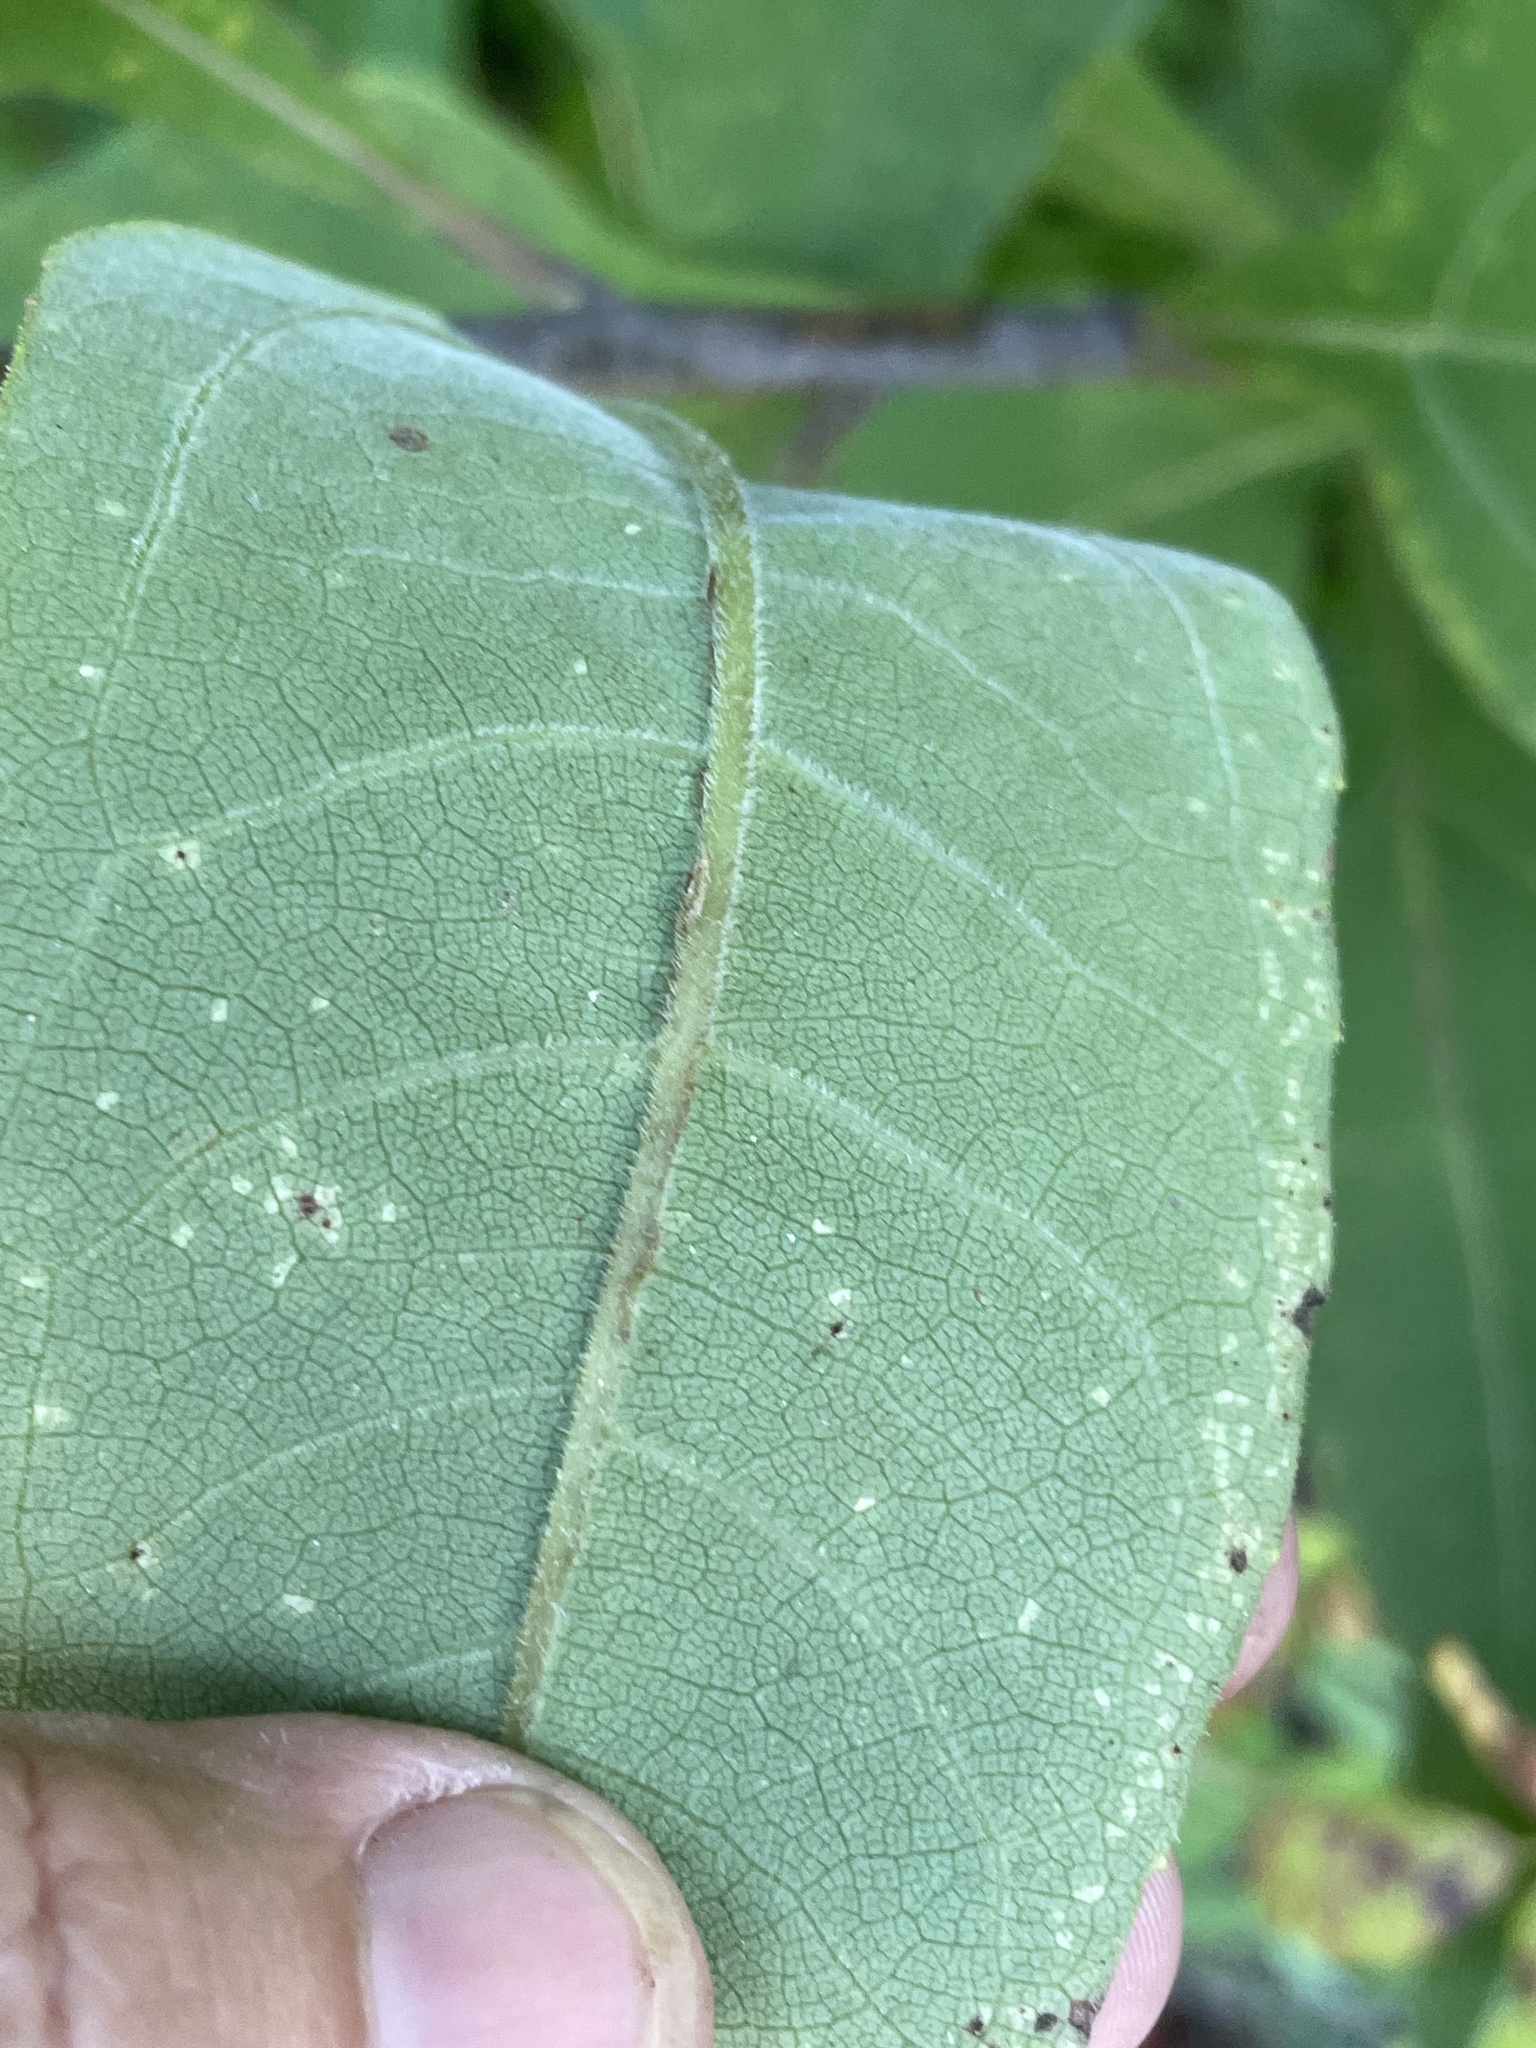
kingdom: Plantae
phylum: Tracheophyta
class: Magnoliopsida
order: Asterales
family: Asteraceae
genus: Helianthus
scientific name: Helianthus tuberosus
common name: Jerusalem artichoke
